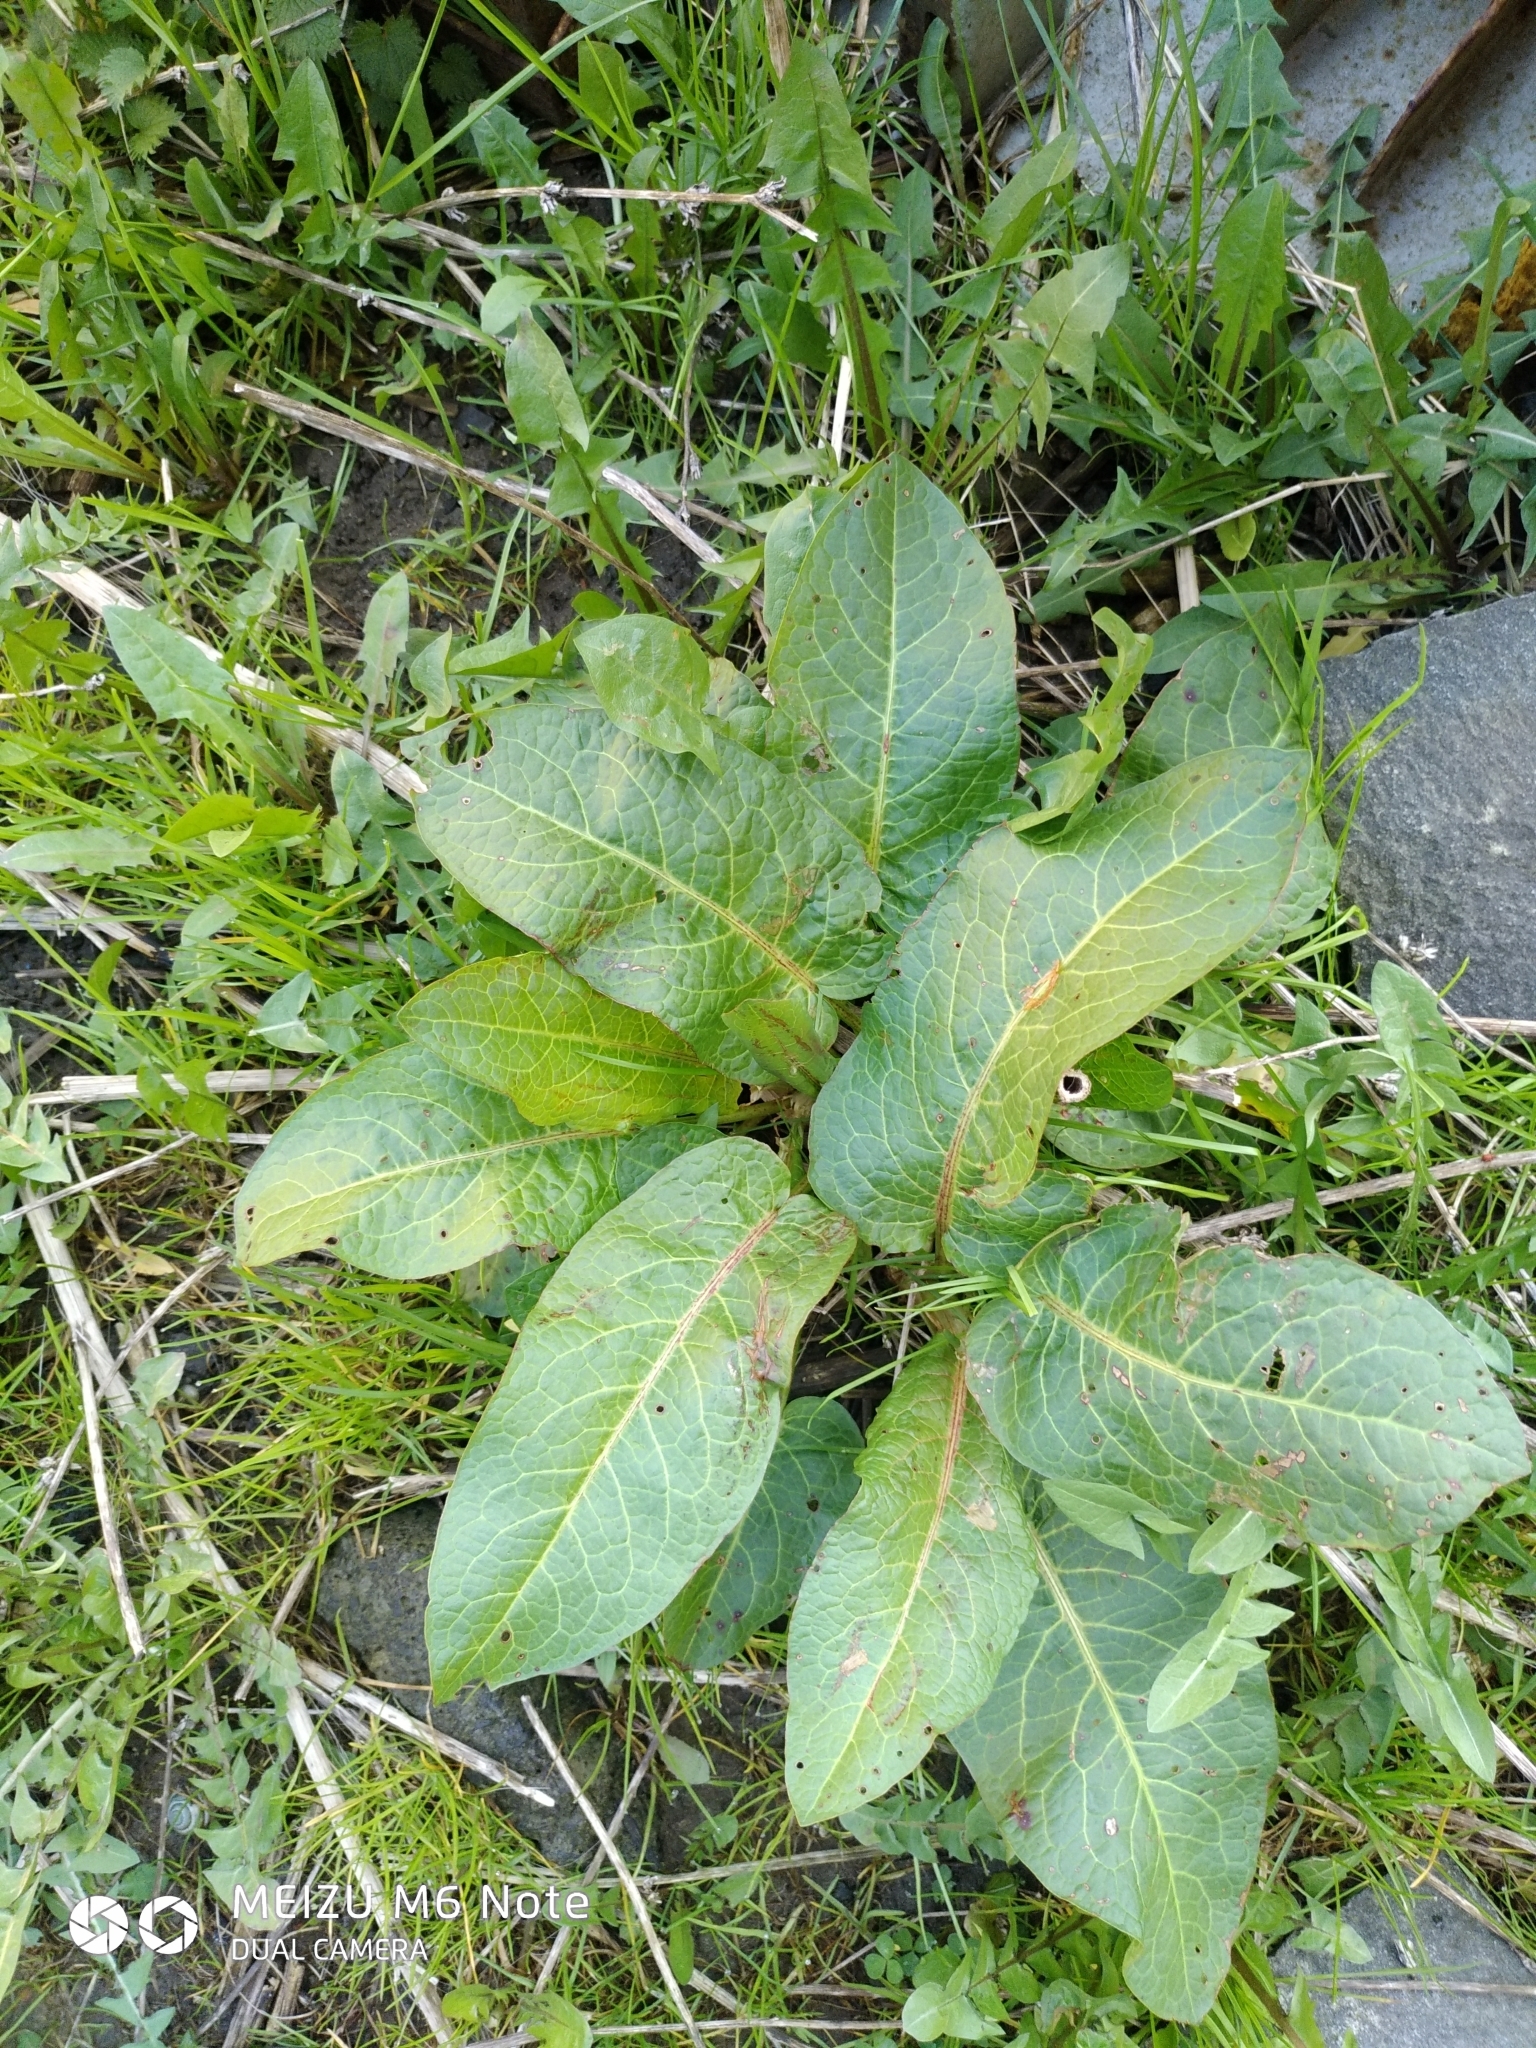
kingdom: Plantae
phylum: Tracheophyta
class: Magnoliopsida
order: Caryophyllales
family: Polygonaceae
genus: Rumex
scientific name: Rumex obtusifolius
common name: Bitter dock
